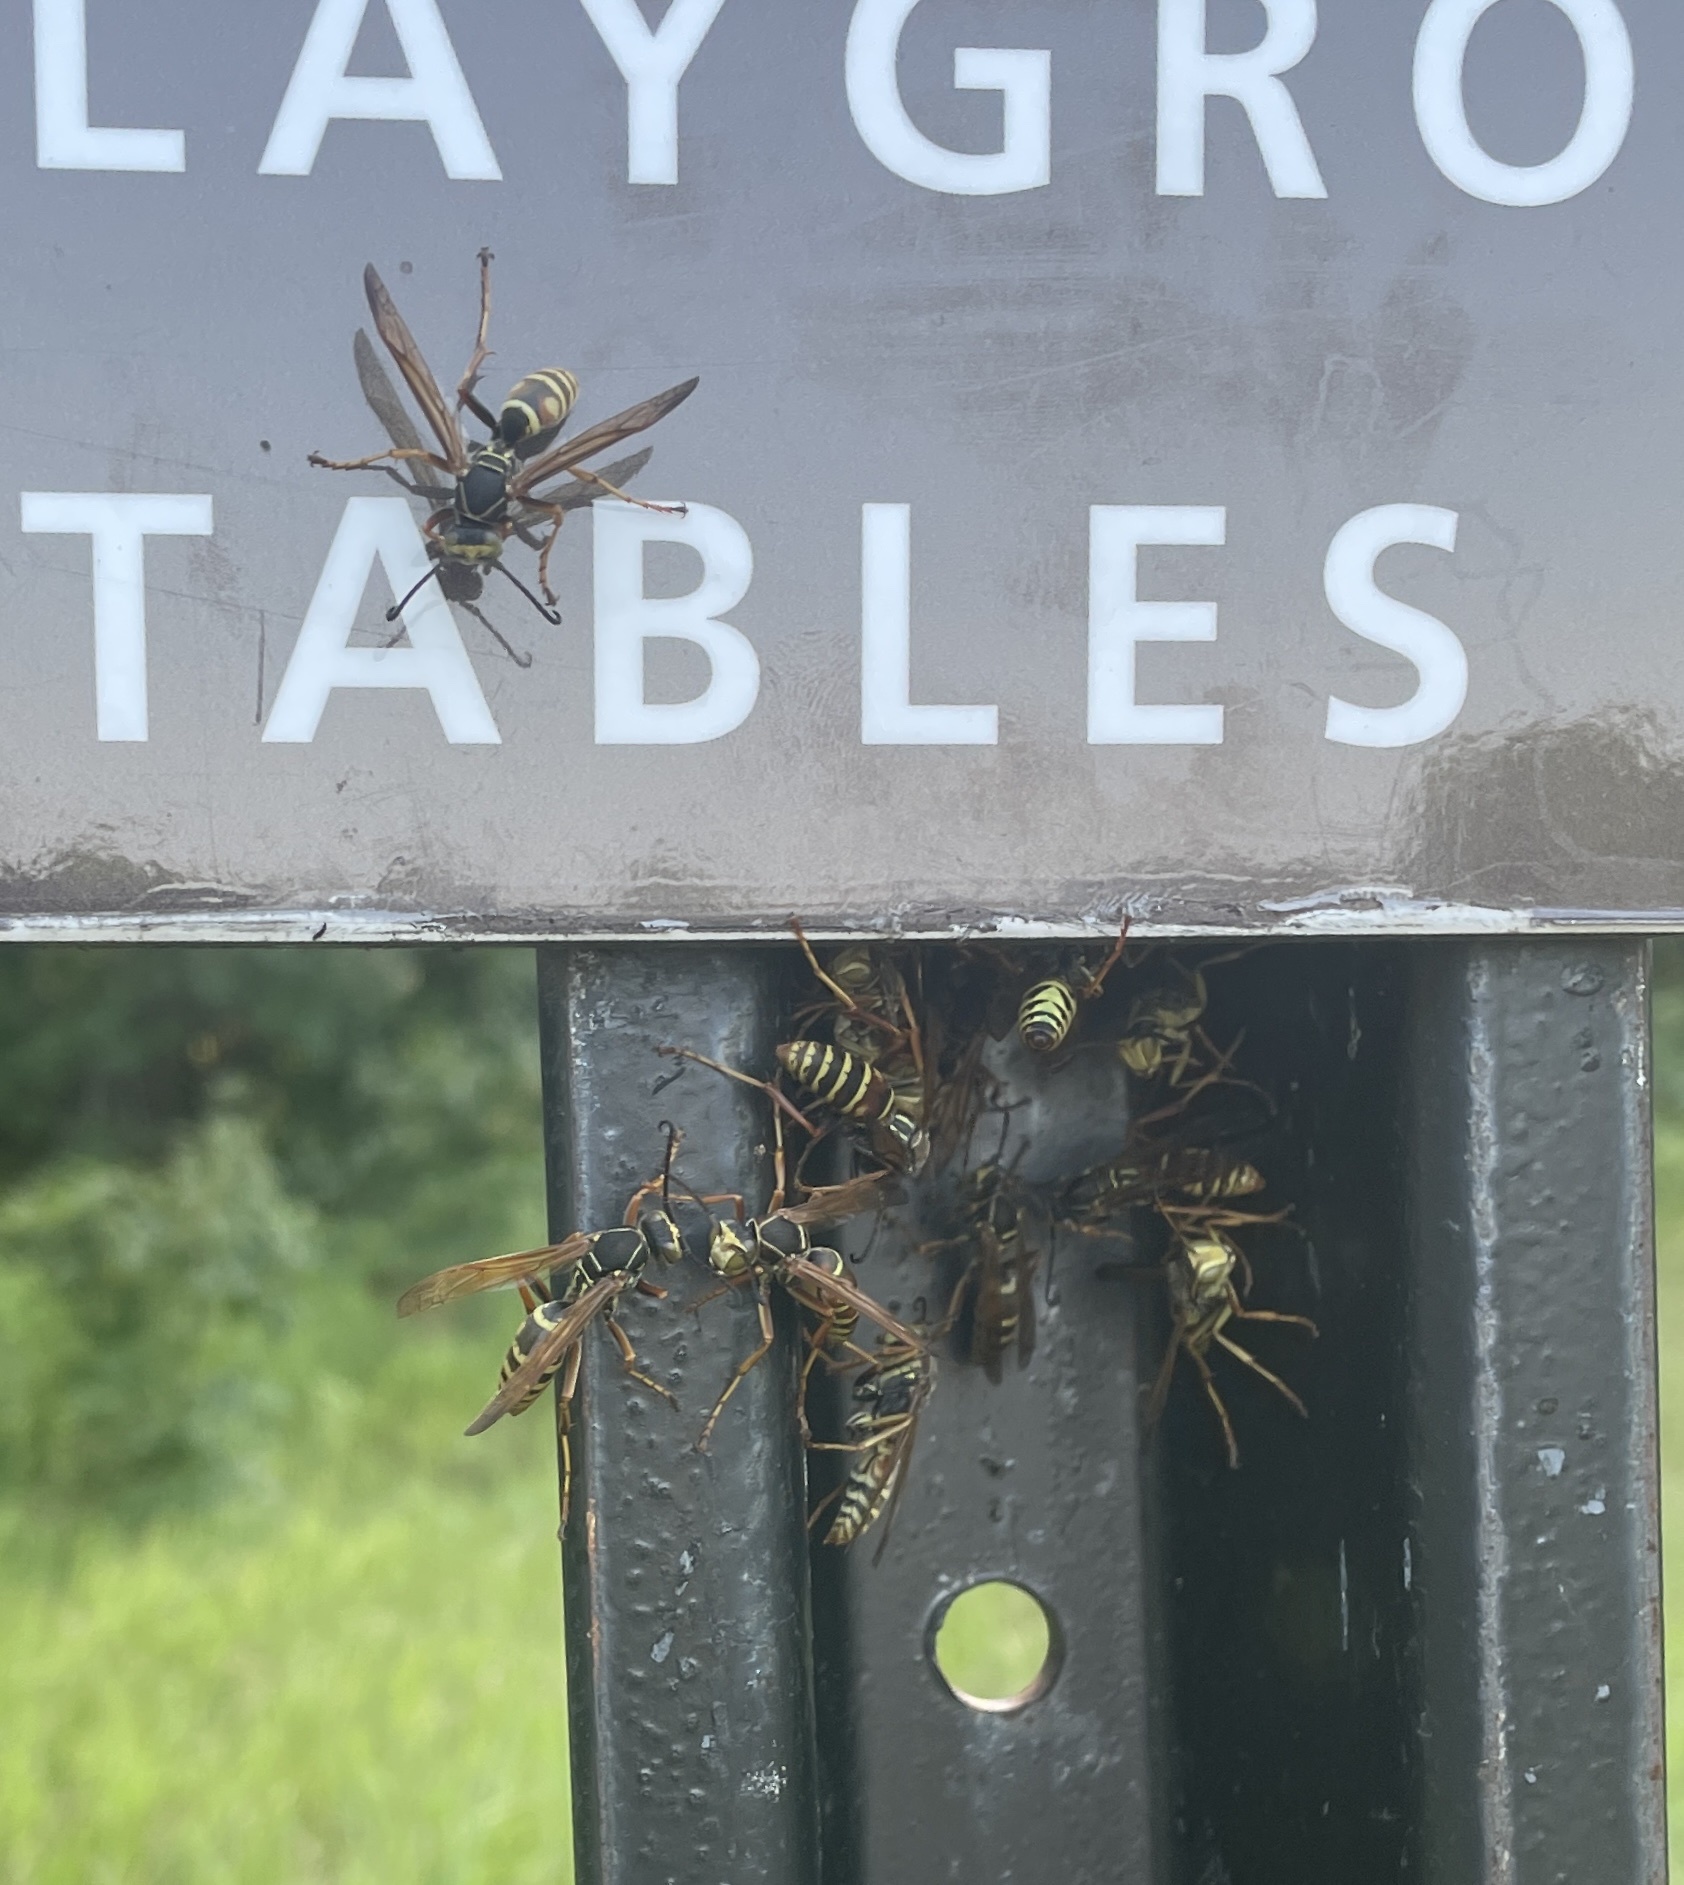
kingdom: Animalia
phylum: Arthropoda
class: Insecta
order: Hymenoptera
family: Eumenidae
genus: Polistes
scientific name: Polistes fuscatus
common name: Dark paper wasp
